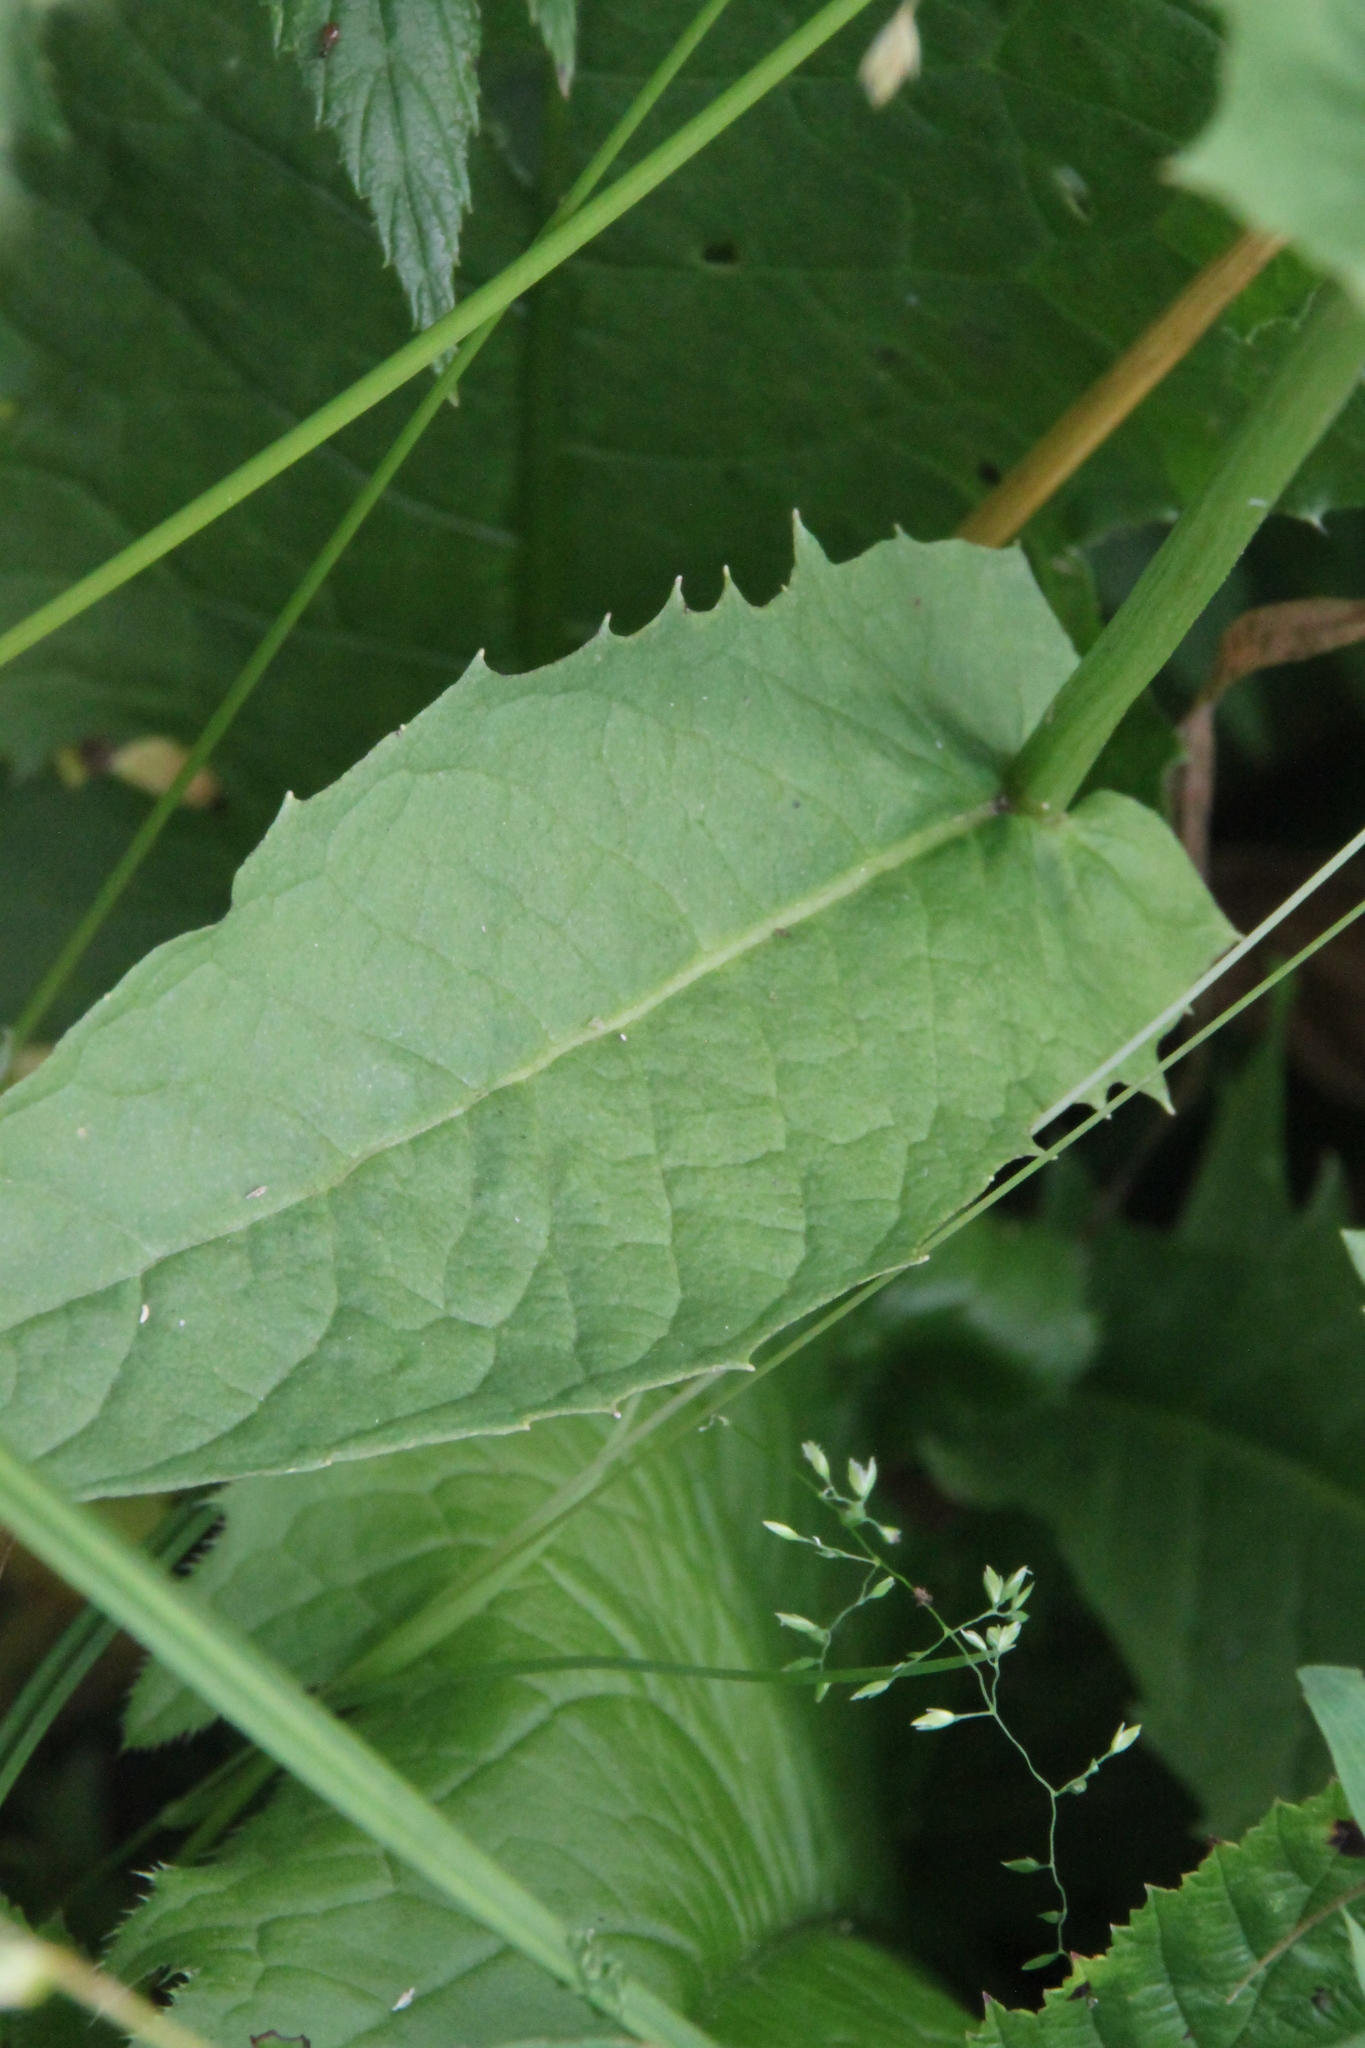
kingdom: Plantae
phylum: Tracheophyta
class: Magnoliopsida
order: Asterales
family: Asteraceae
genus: Crepis
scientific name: Crepis paludosa
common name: Marsh hawk's-beard
